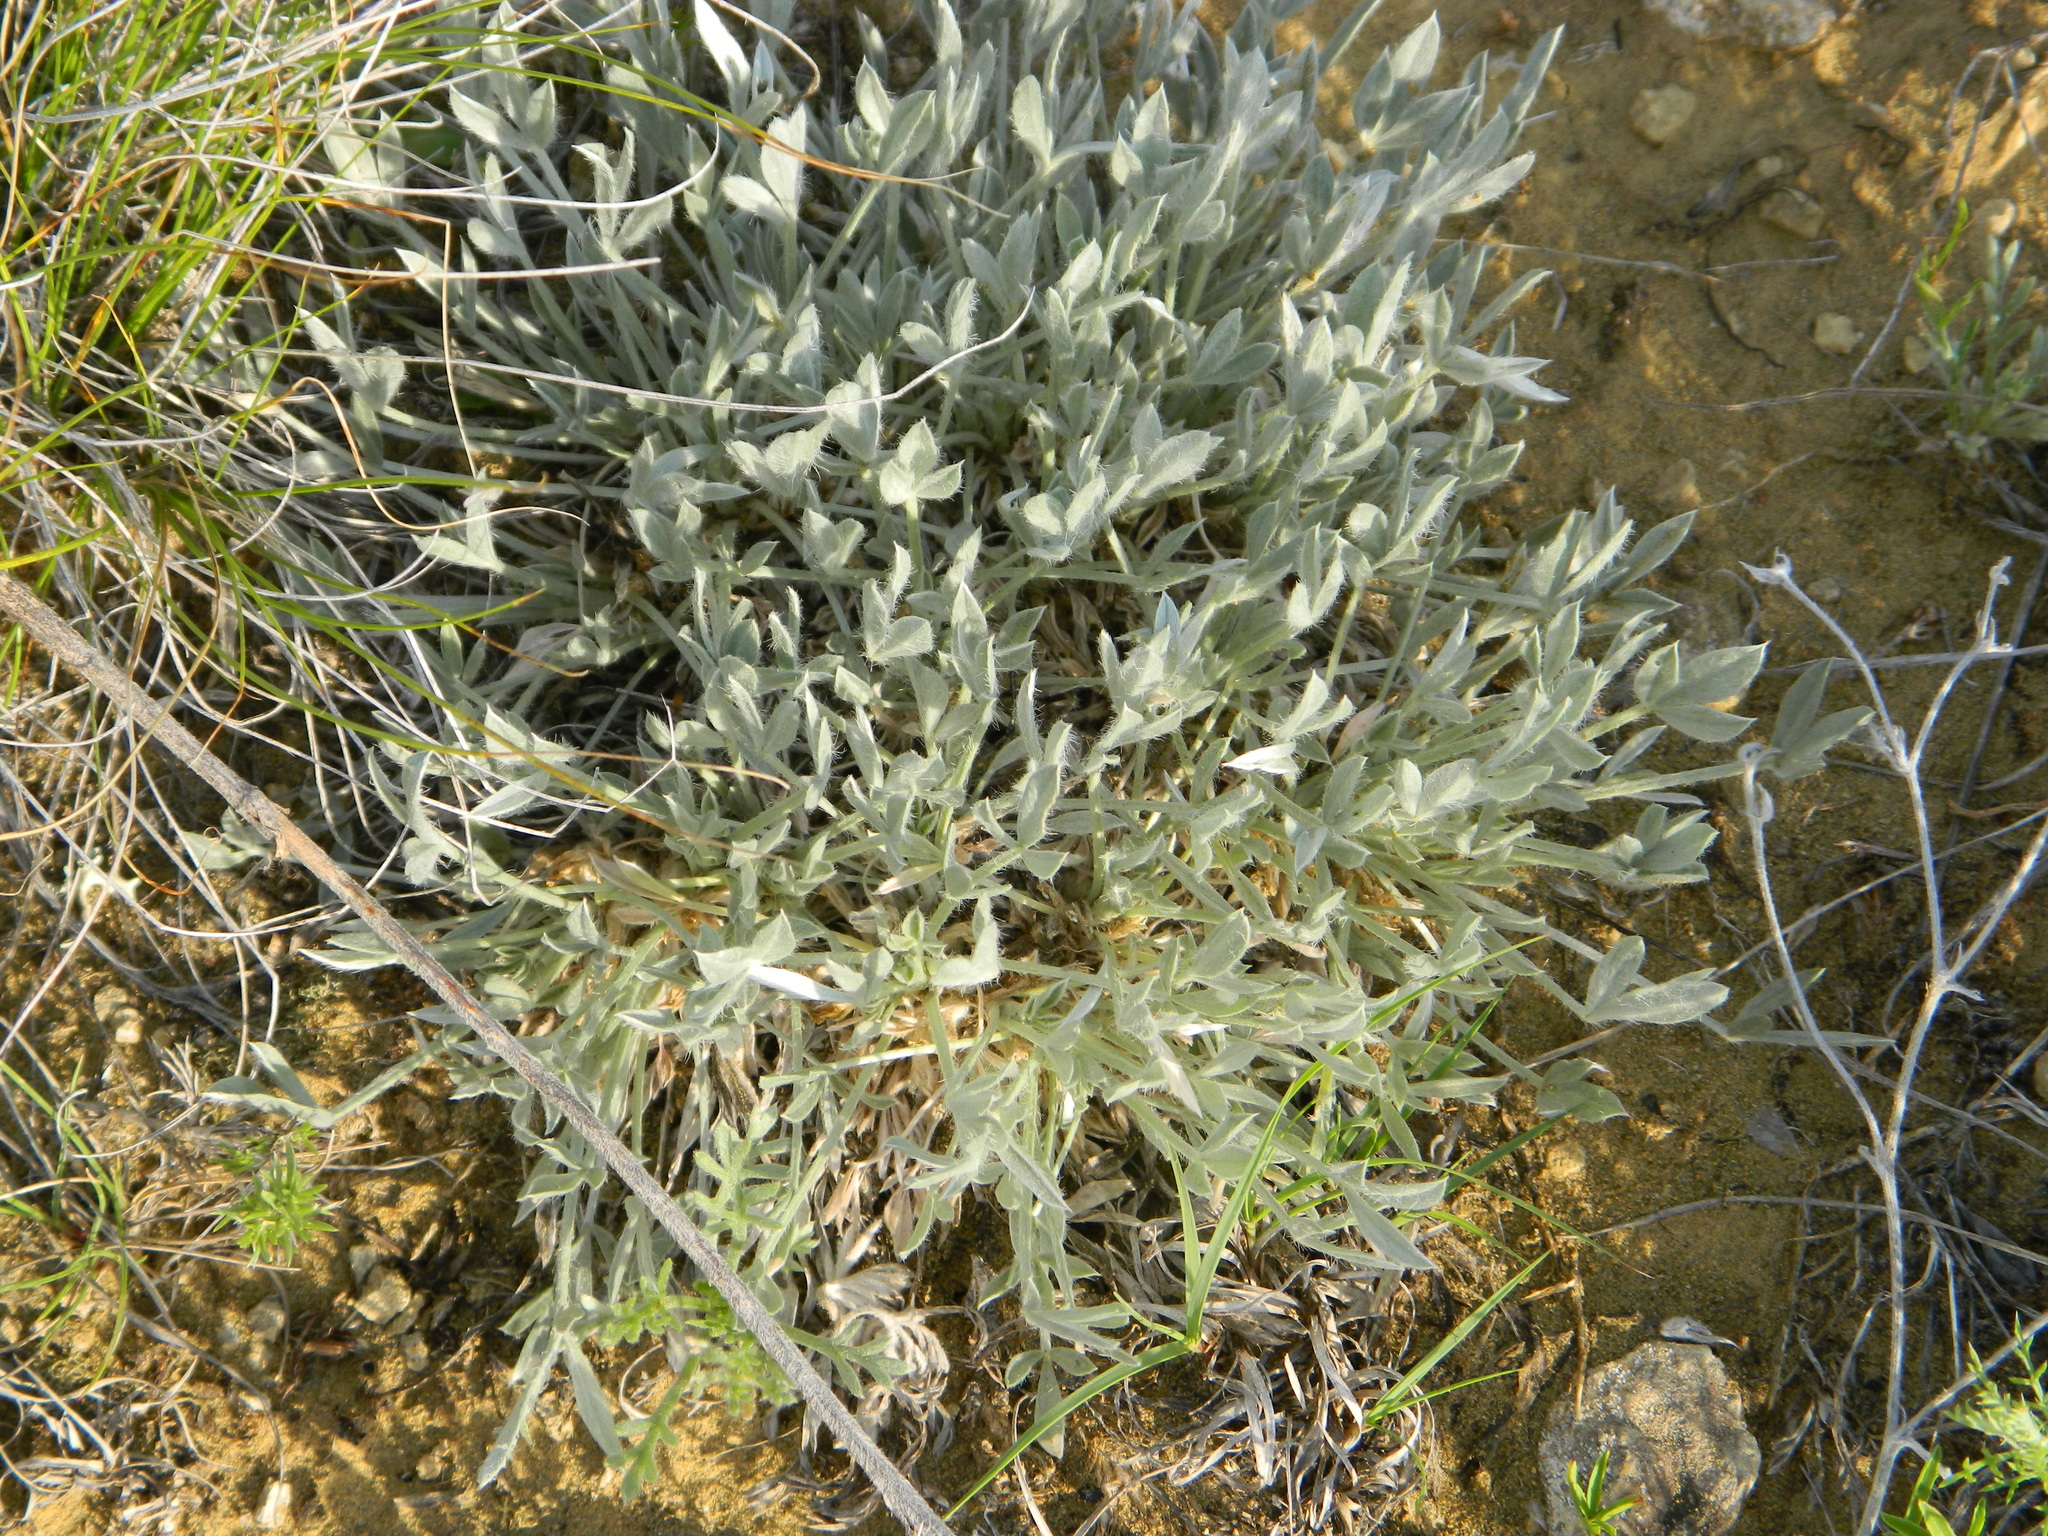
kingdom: Plantae
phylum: Tracheophyta
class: Magnoliopsida
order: Fabales
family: Fabaceae
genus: Astragalus
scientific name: Astragalus gilviflorus
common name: Cushion milk-vetch
